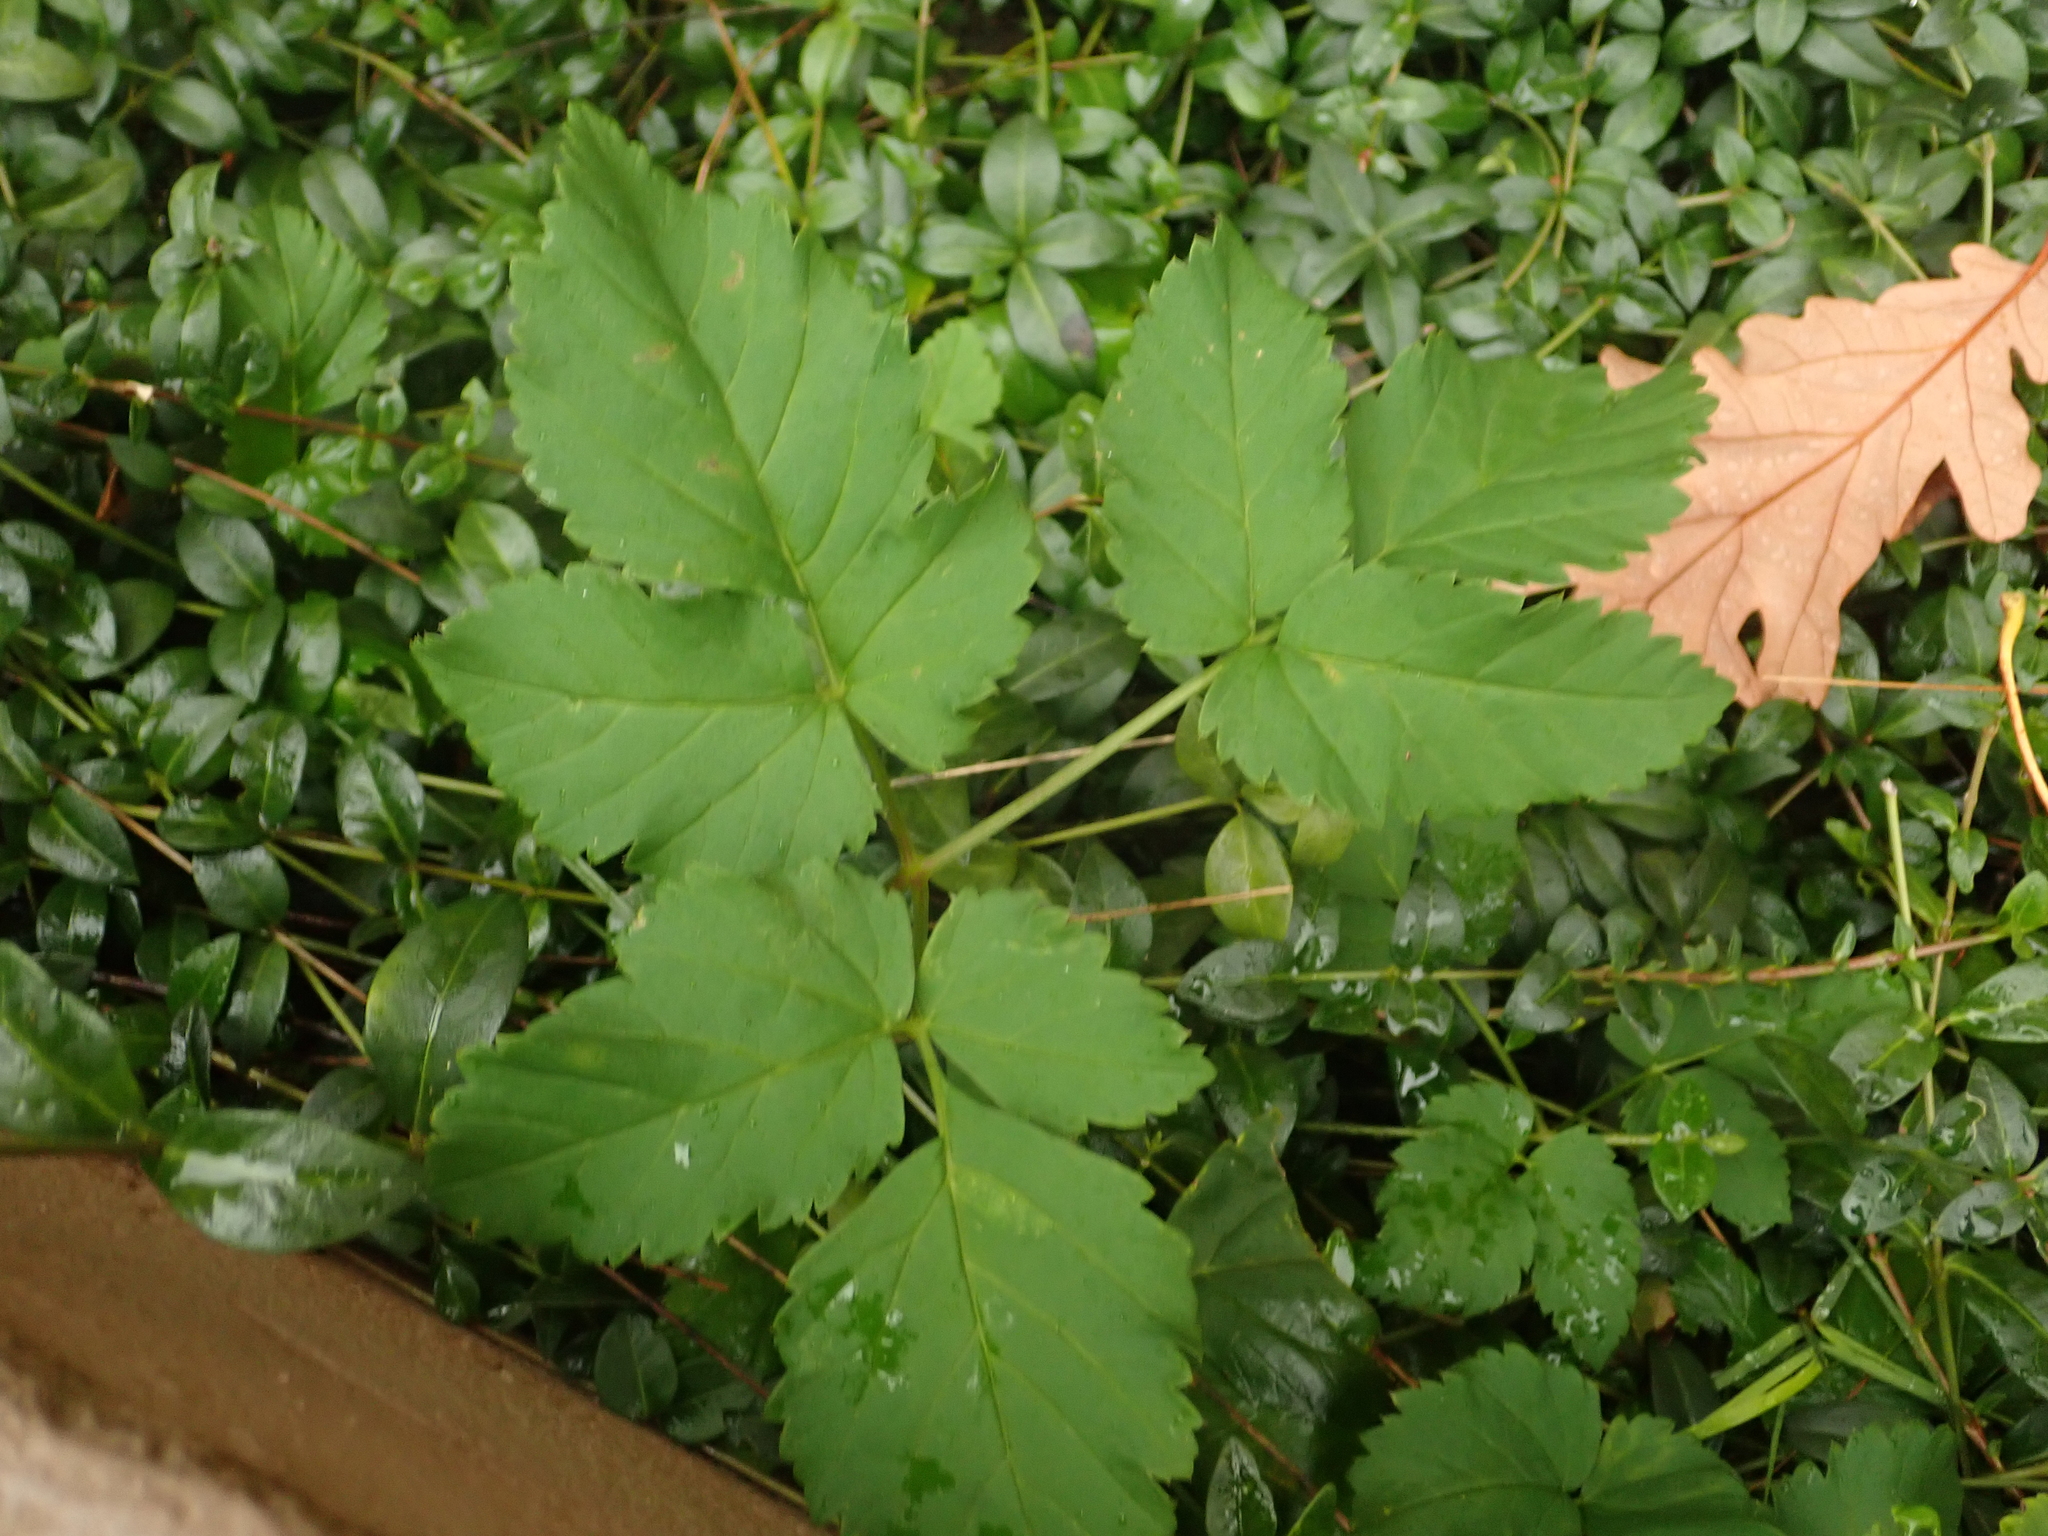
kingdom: Plantae
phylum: Tracheophyta
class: Magnoliopsida
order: Apiales
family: Apiaceae
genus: Aegopodium
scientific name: Aegopodium podagraria
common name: Ground-elder
